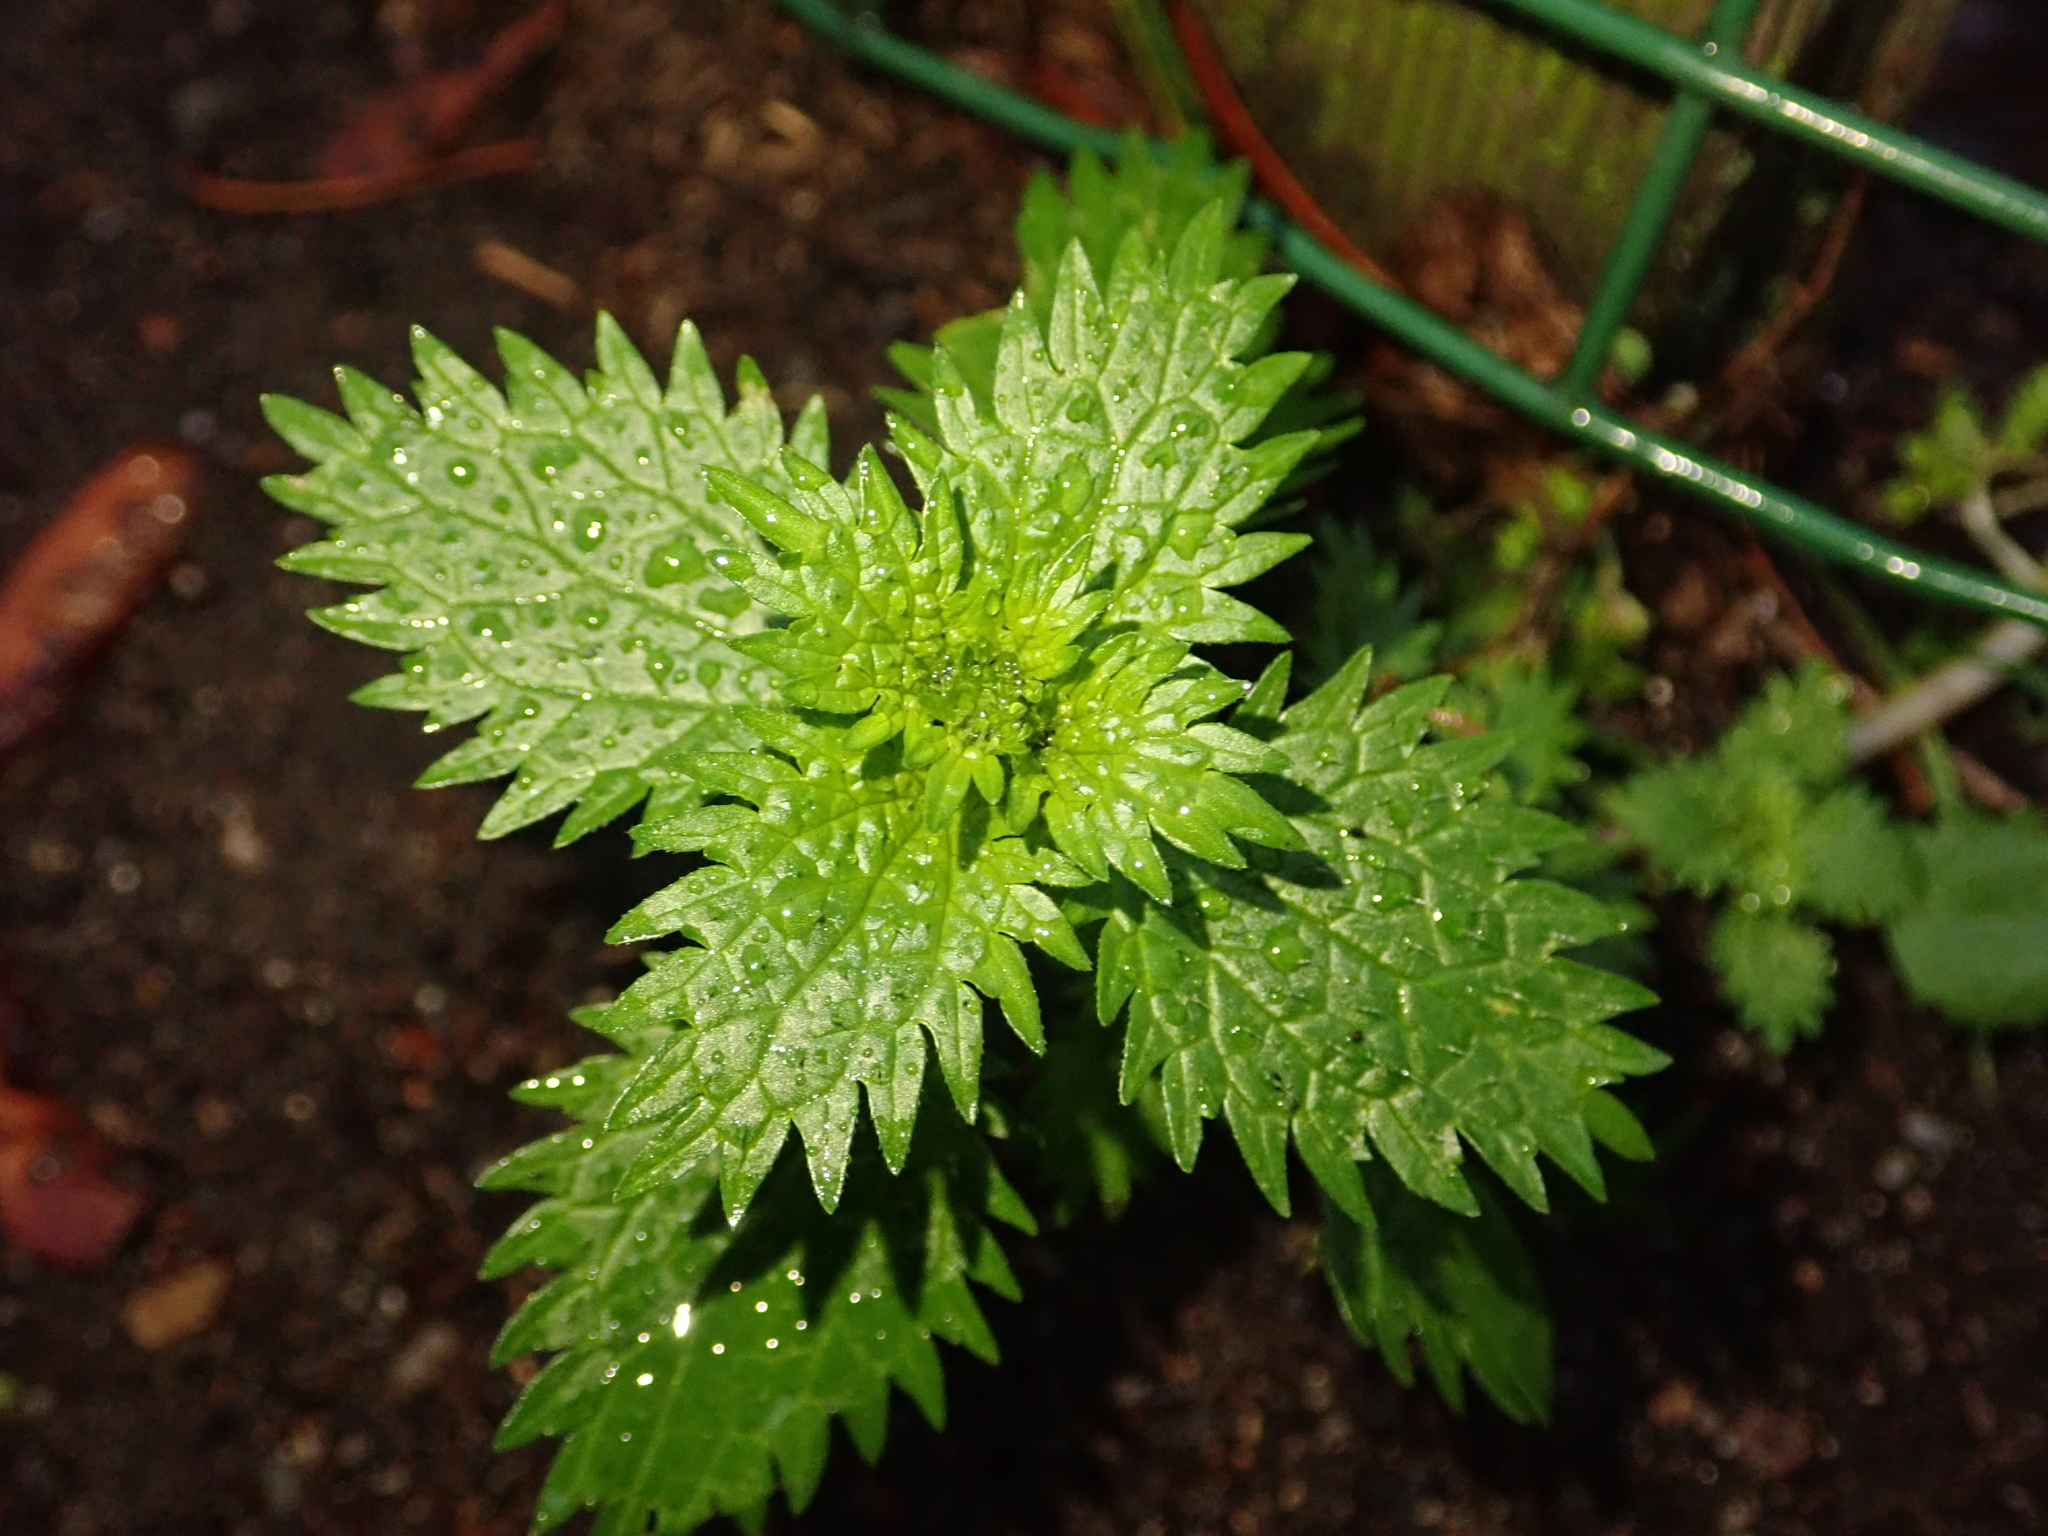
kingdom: Plantae
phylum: Tracheophyta
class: Magnoliopsida
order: Rosales
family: Urticaceae
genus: Urtica
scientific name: Urtica urens
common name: Dwarf nettle
